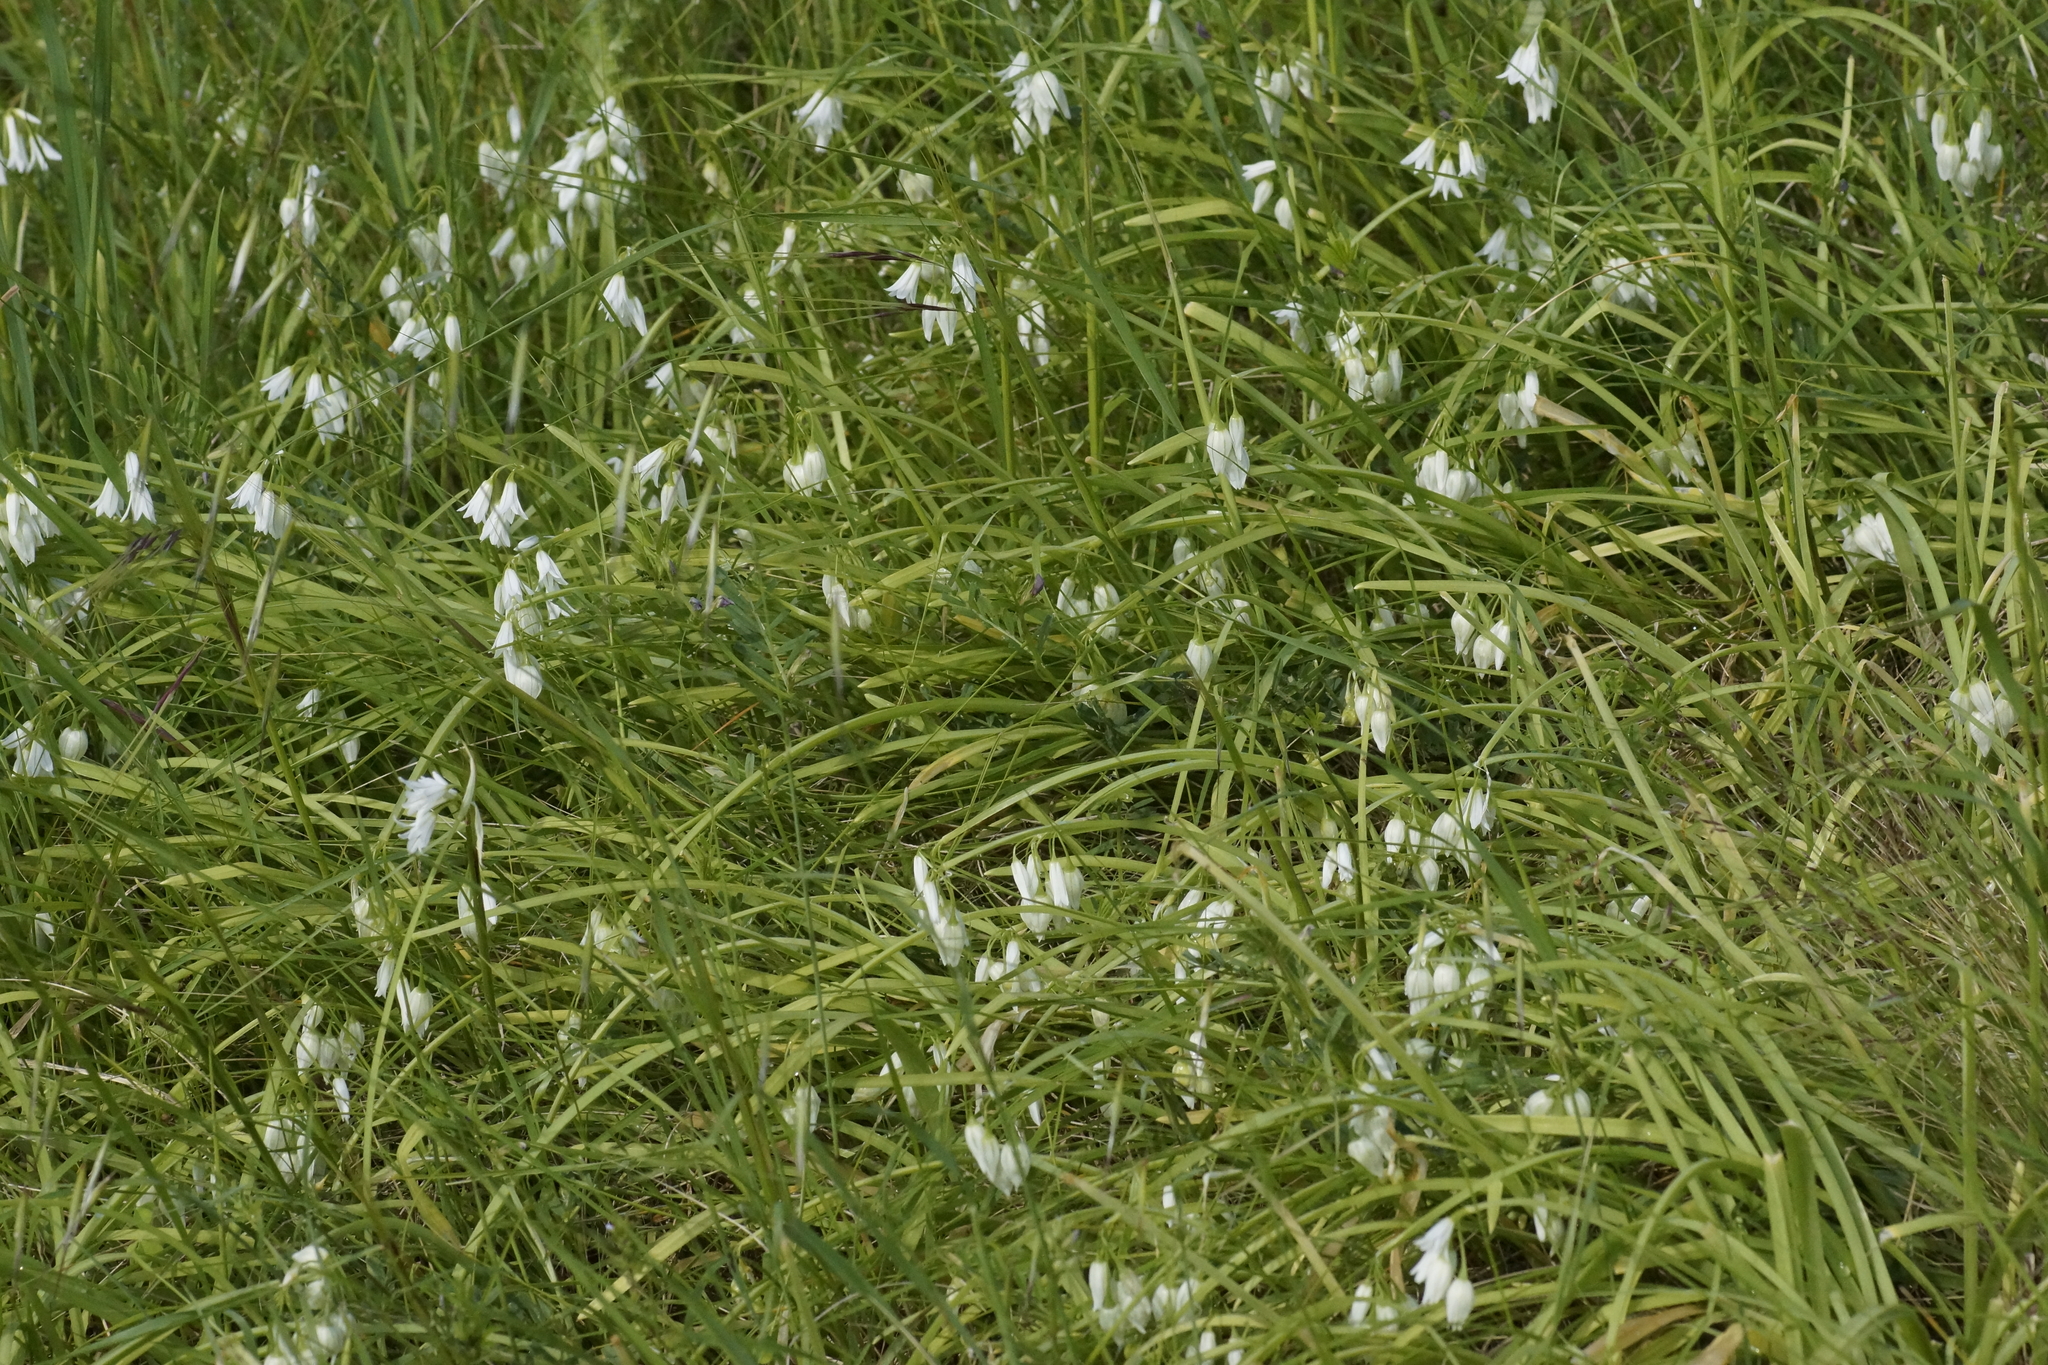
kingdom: Plantae
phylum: Tracheophyta
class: Liliopsida
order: Asparagales
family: Amaryllidaceae
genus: Allium
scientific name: Allium triquetrum
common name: Three-cornered garlic
